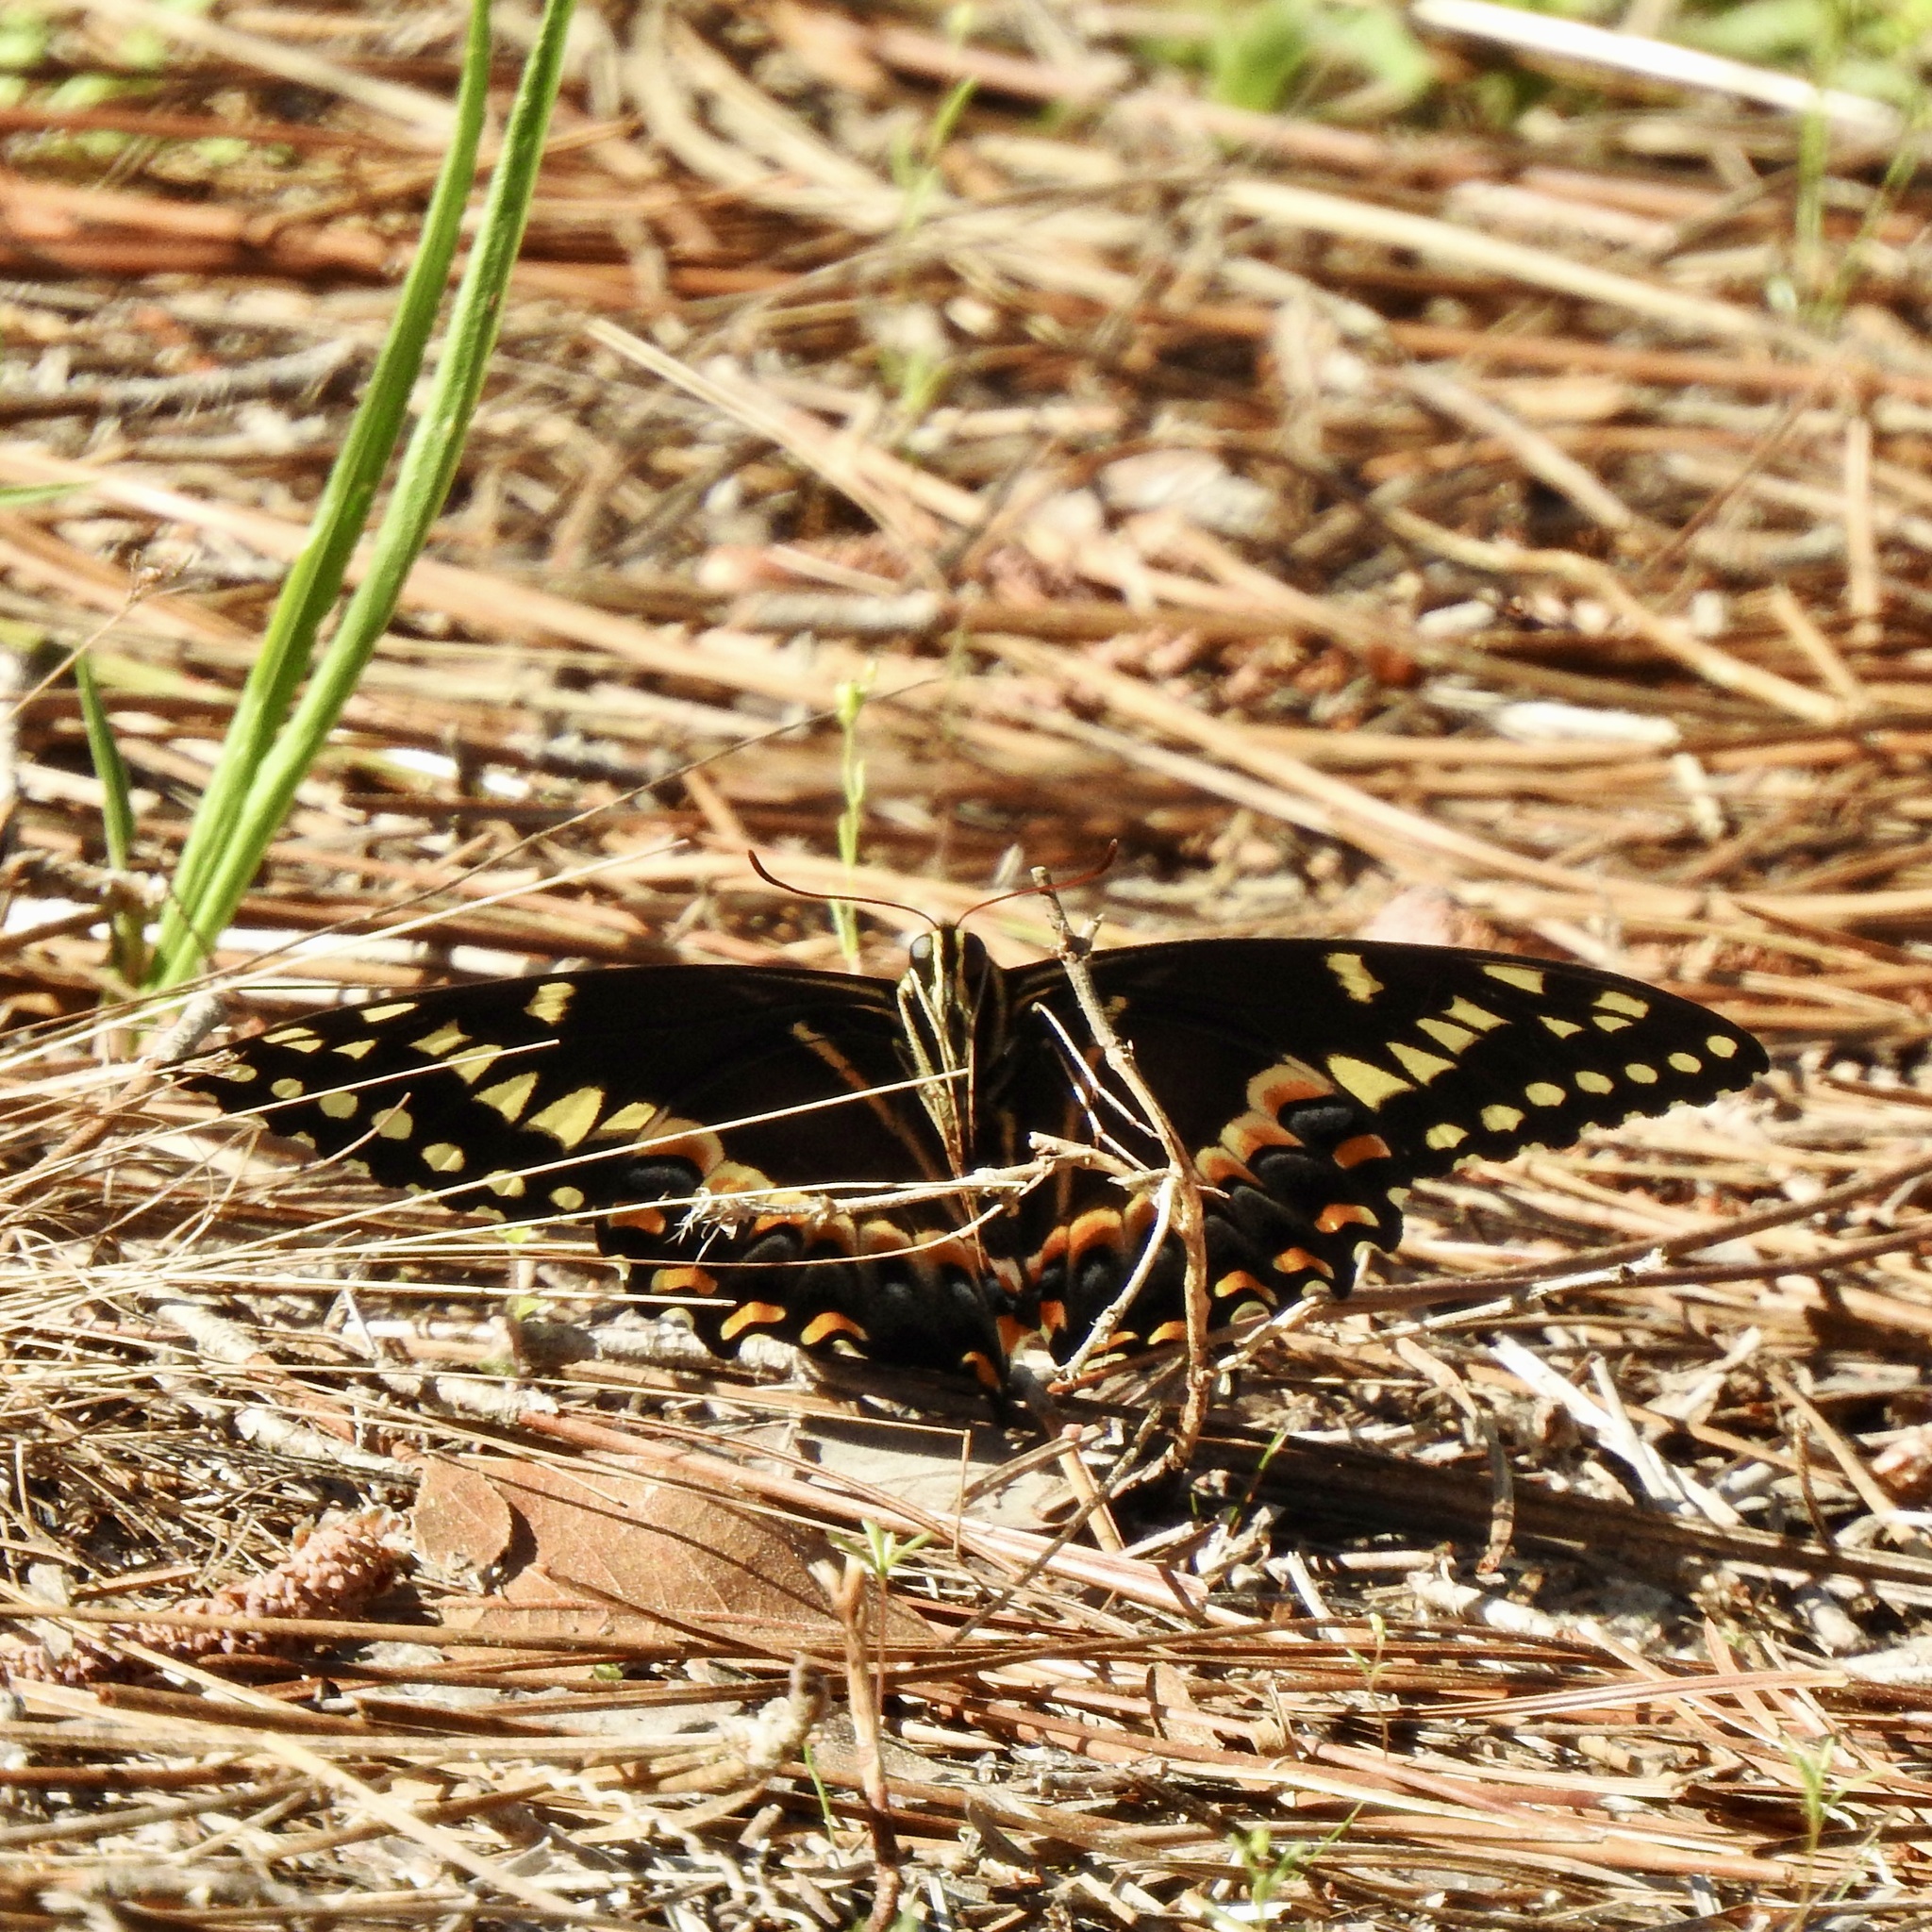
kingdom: Animalia
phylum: Arthropoda
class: Insecta
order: Lepidoptera
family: Papilionidae
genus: Papilio
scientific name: Papilio palamedes
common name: Palamedes swallowtail
